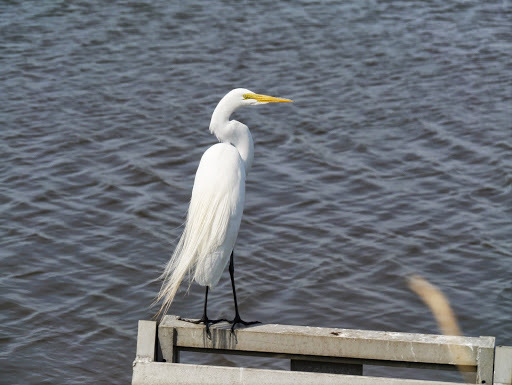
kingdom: Animalia
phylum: Chordata
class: Aves
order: Pelecaniformes
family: Ardeidae
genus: Ardea
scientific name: Ardea alba
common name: Great egret
